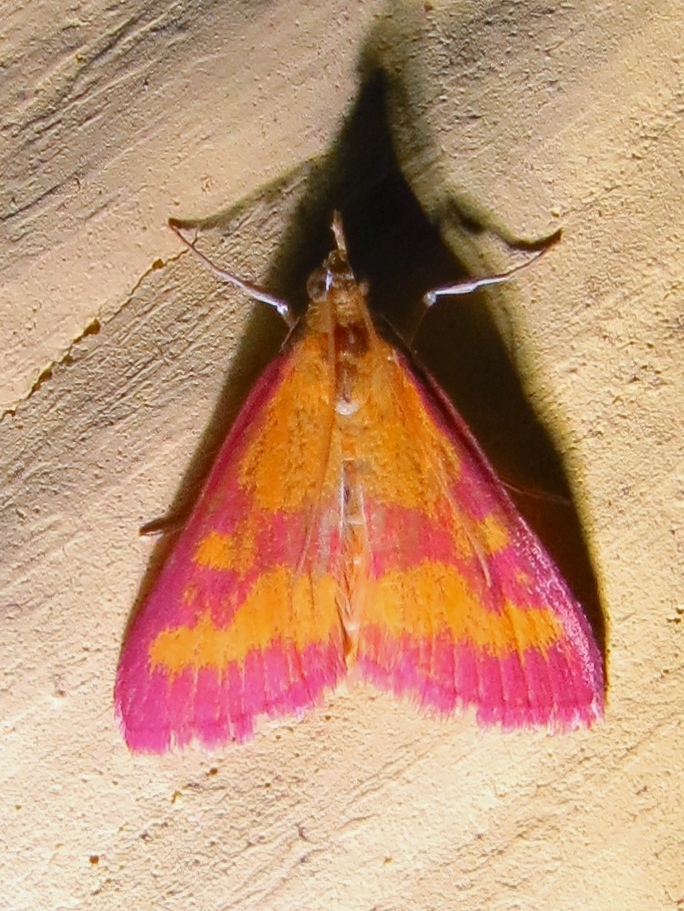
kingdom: Animalia
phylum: Arthropoda
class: Insecta
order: Lepidoptera
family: Crambidae
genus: Pyrausta
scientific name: Pyrausta laticlavia
